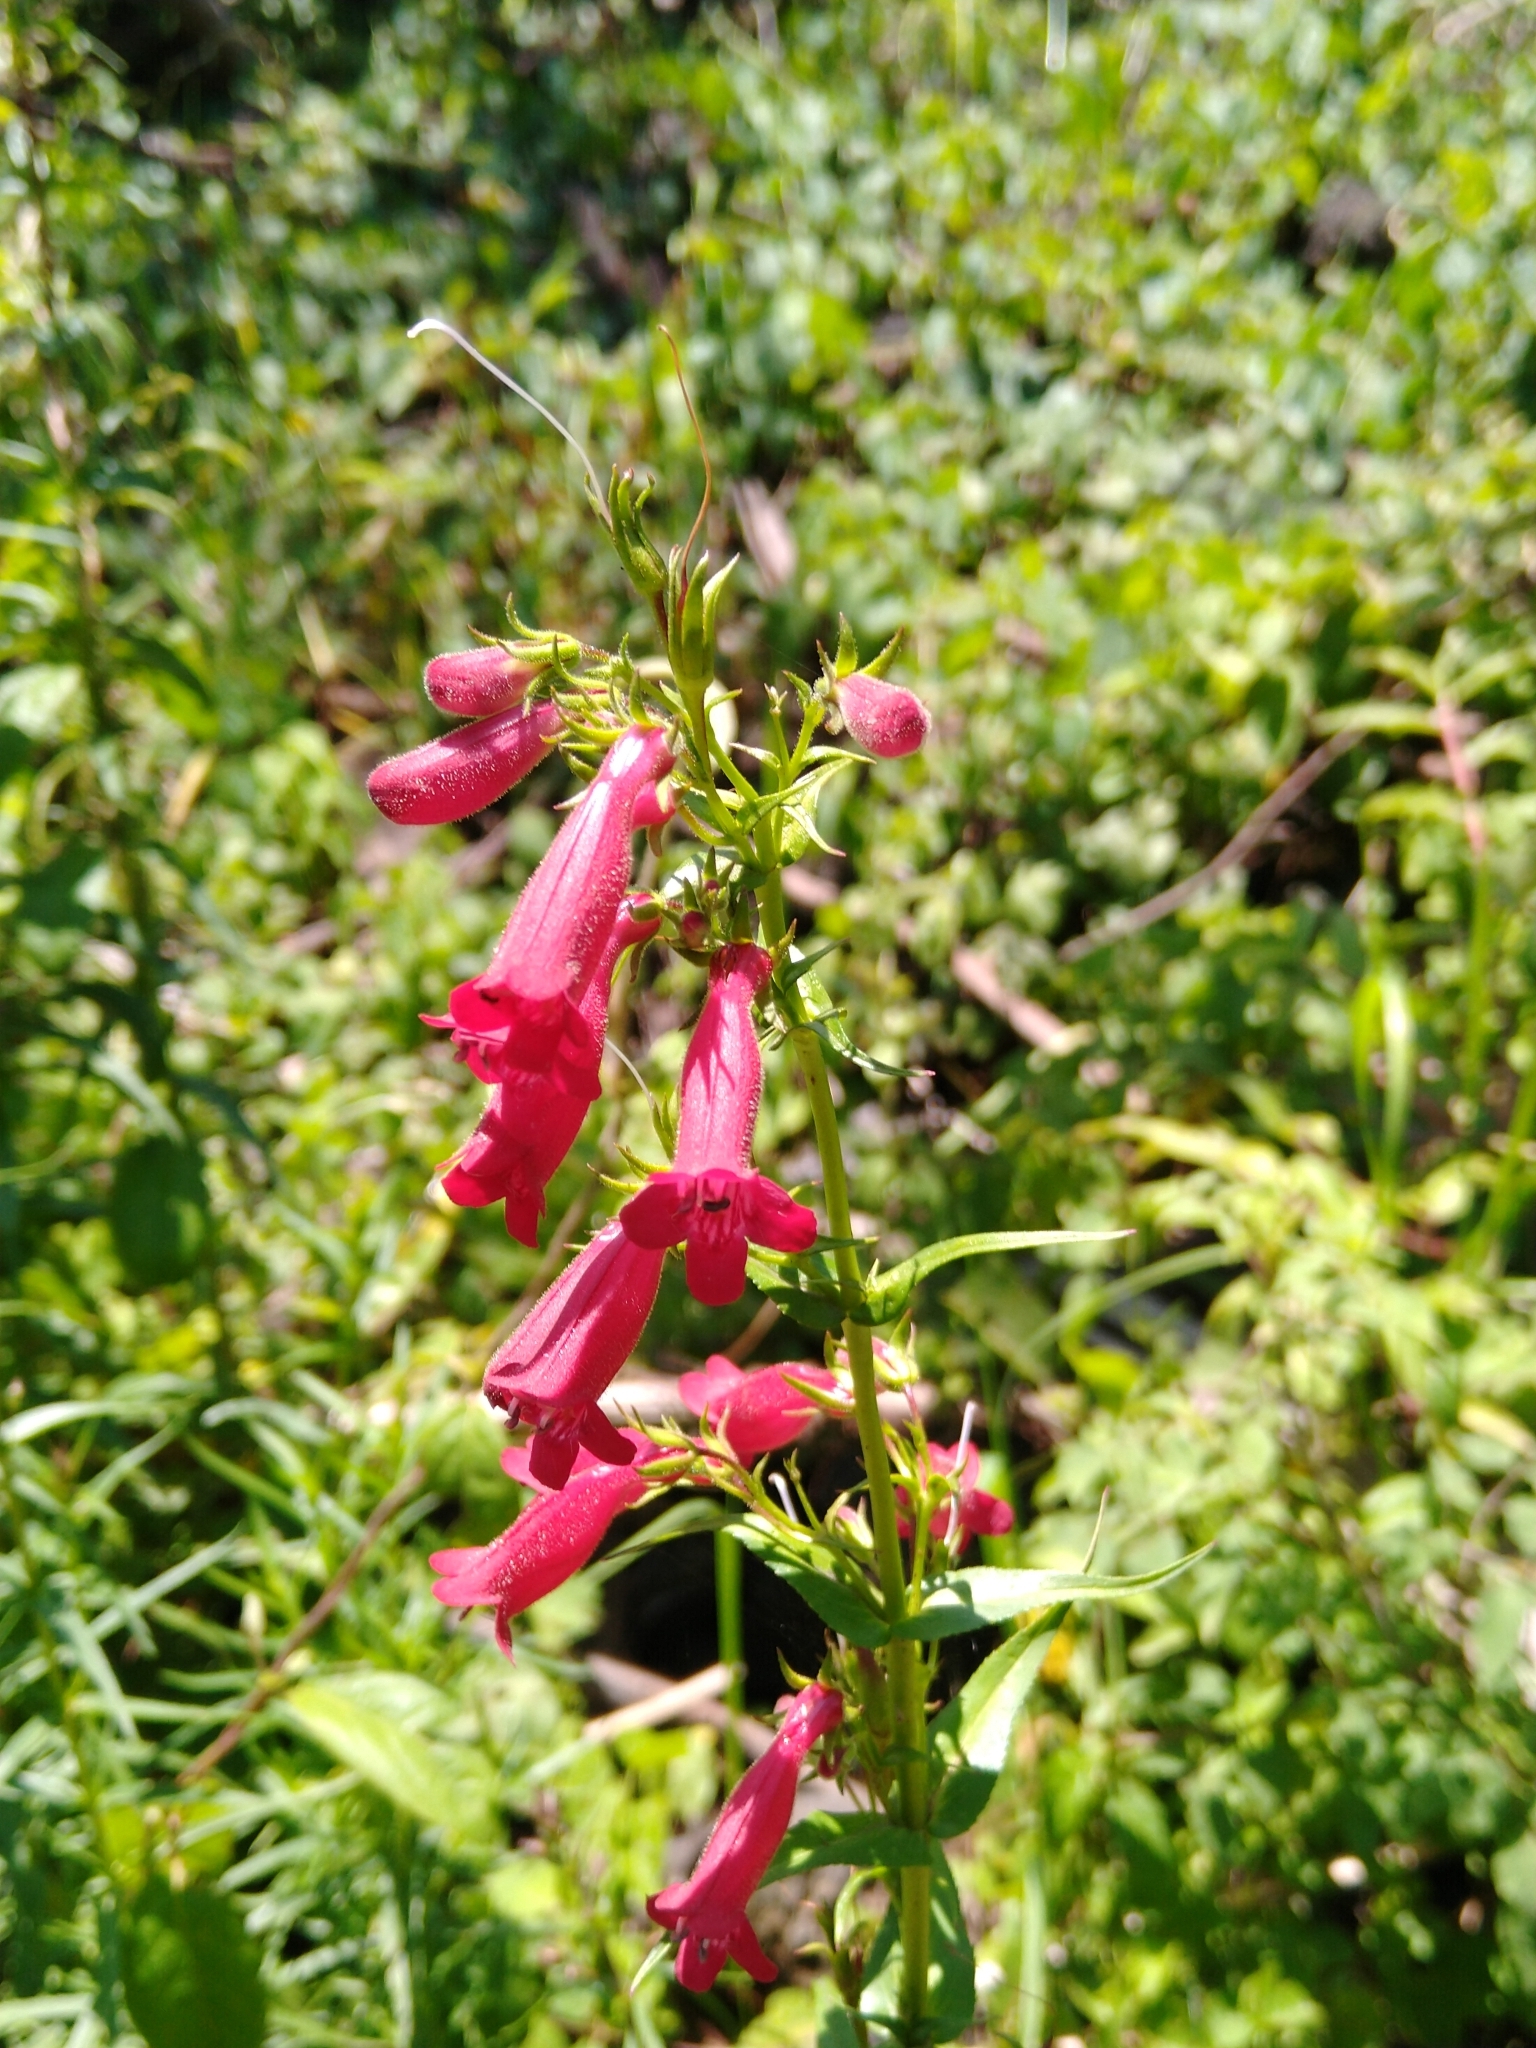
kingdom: Plantae
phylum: Tracheophyta
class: Magnoliopsida
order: Lamiales
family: Plantaginaceae
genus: Penstemon
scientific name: Penstemon roseus
